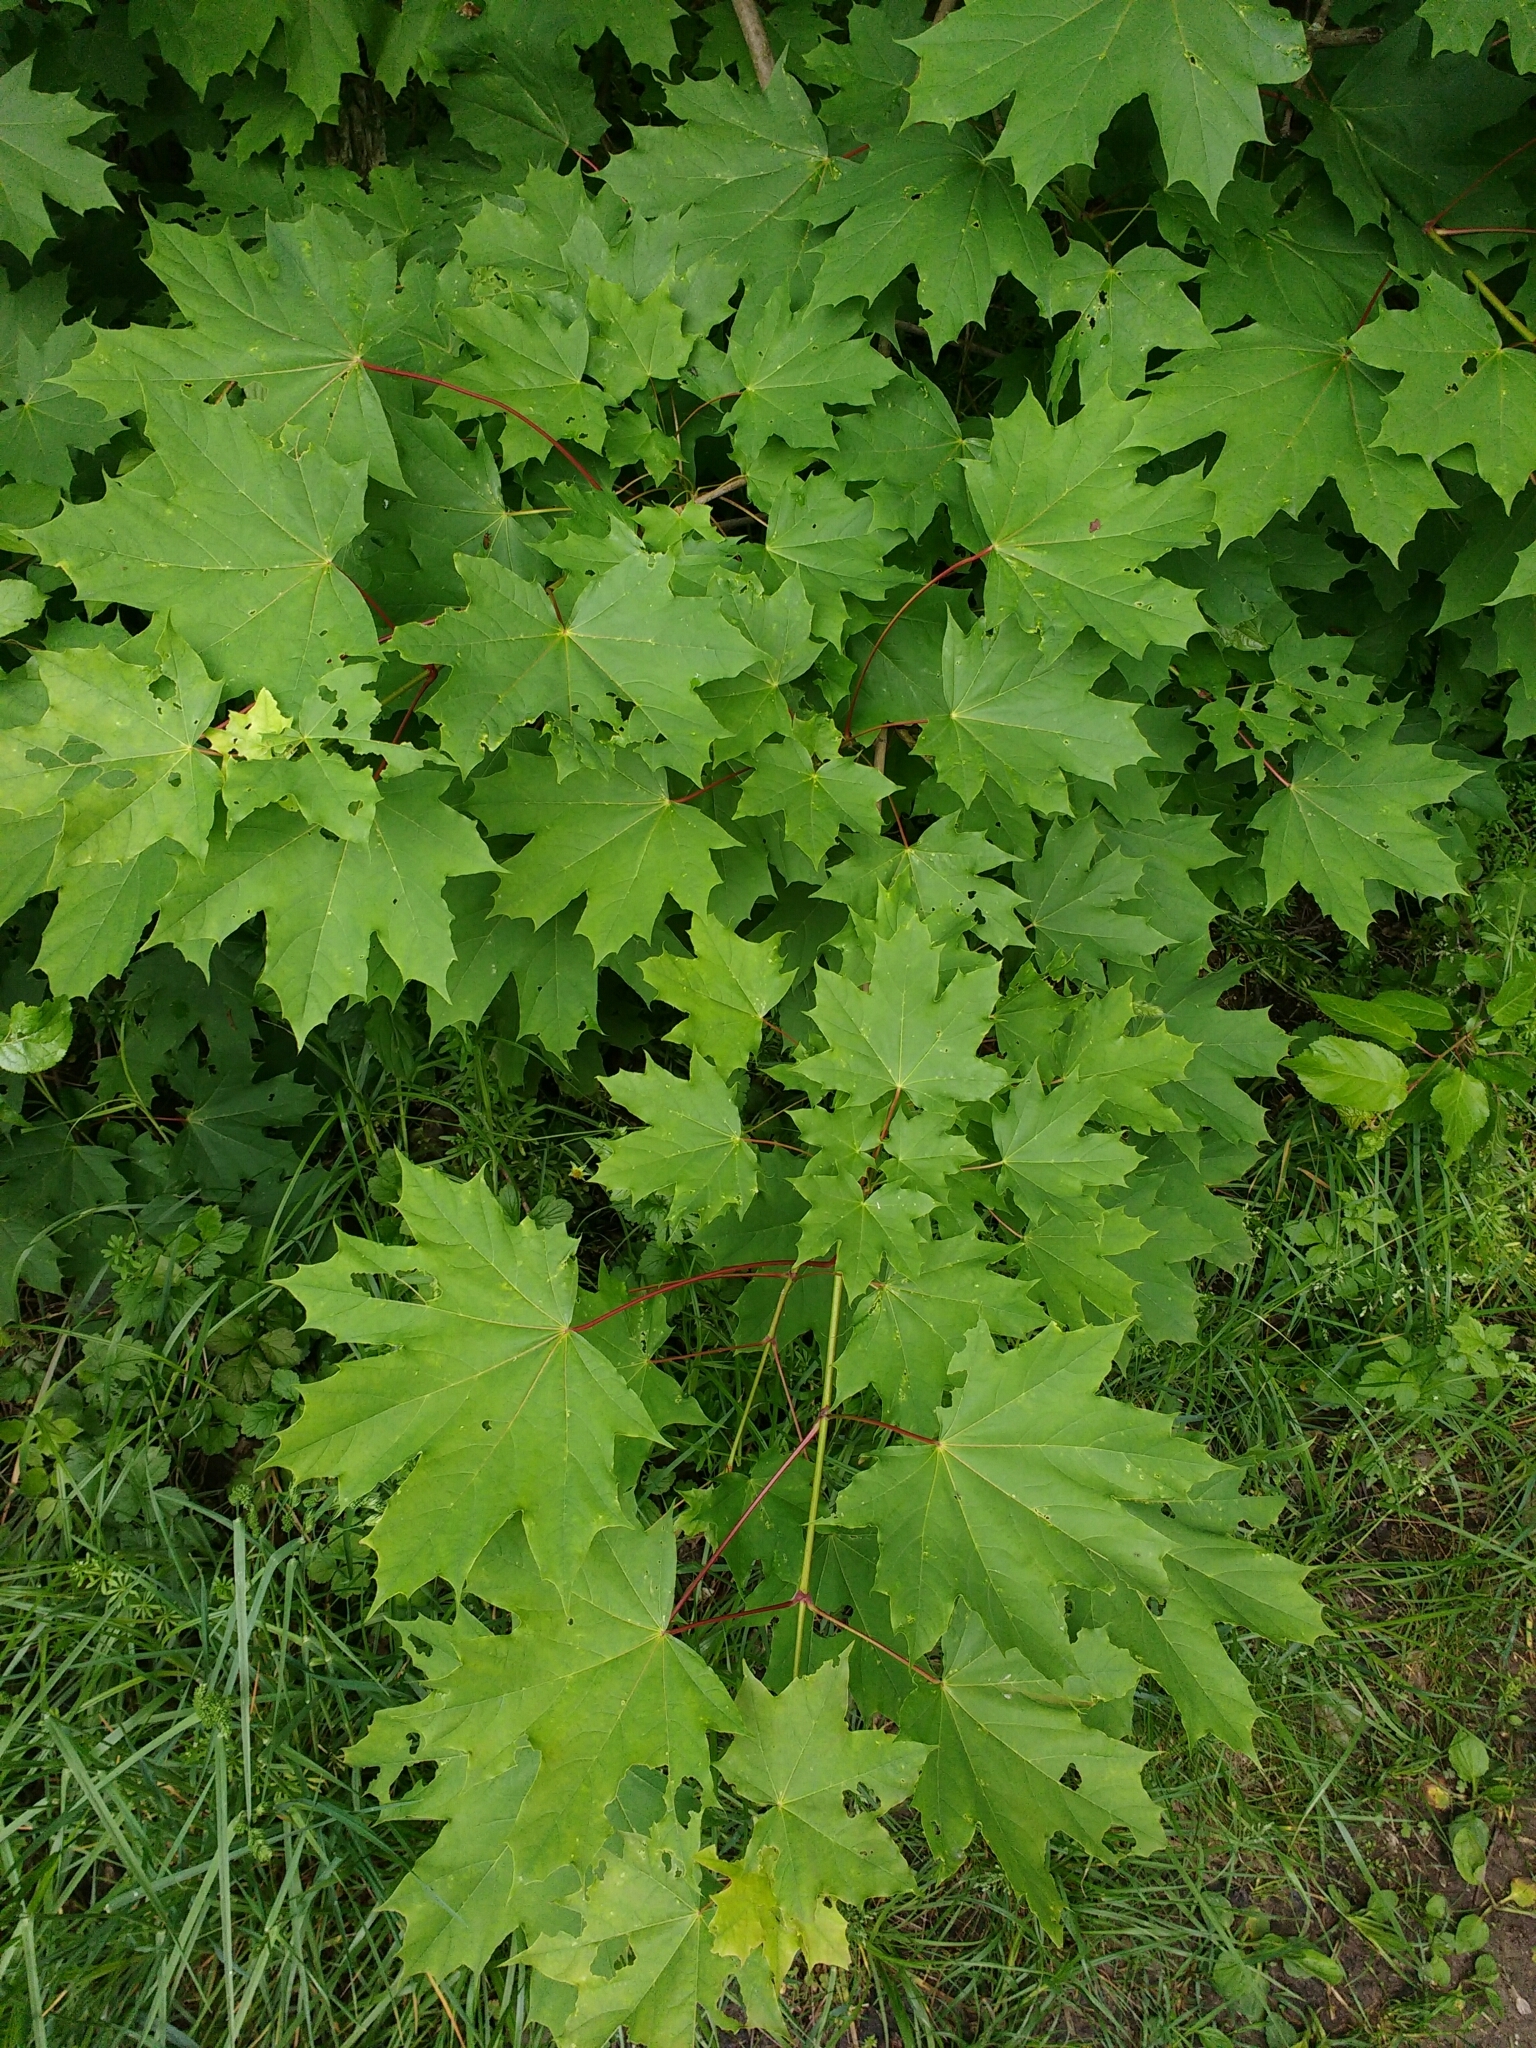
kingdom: Plantae
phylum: Tracheophyta
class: Magnoliopsida
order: Sapindales
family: Sapindaceae
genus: Acer
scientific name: Acer platanoides
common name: Norway maple
